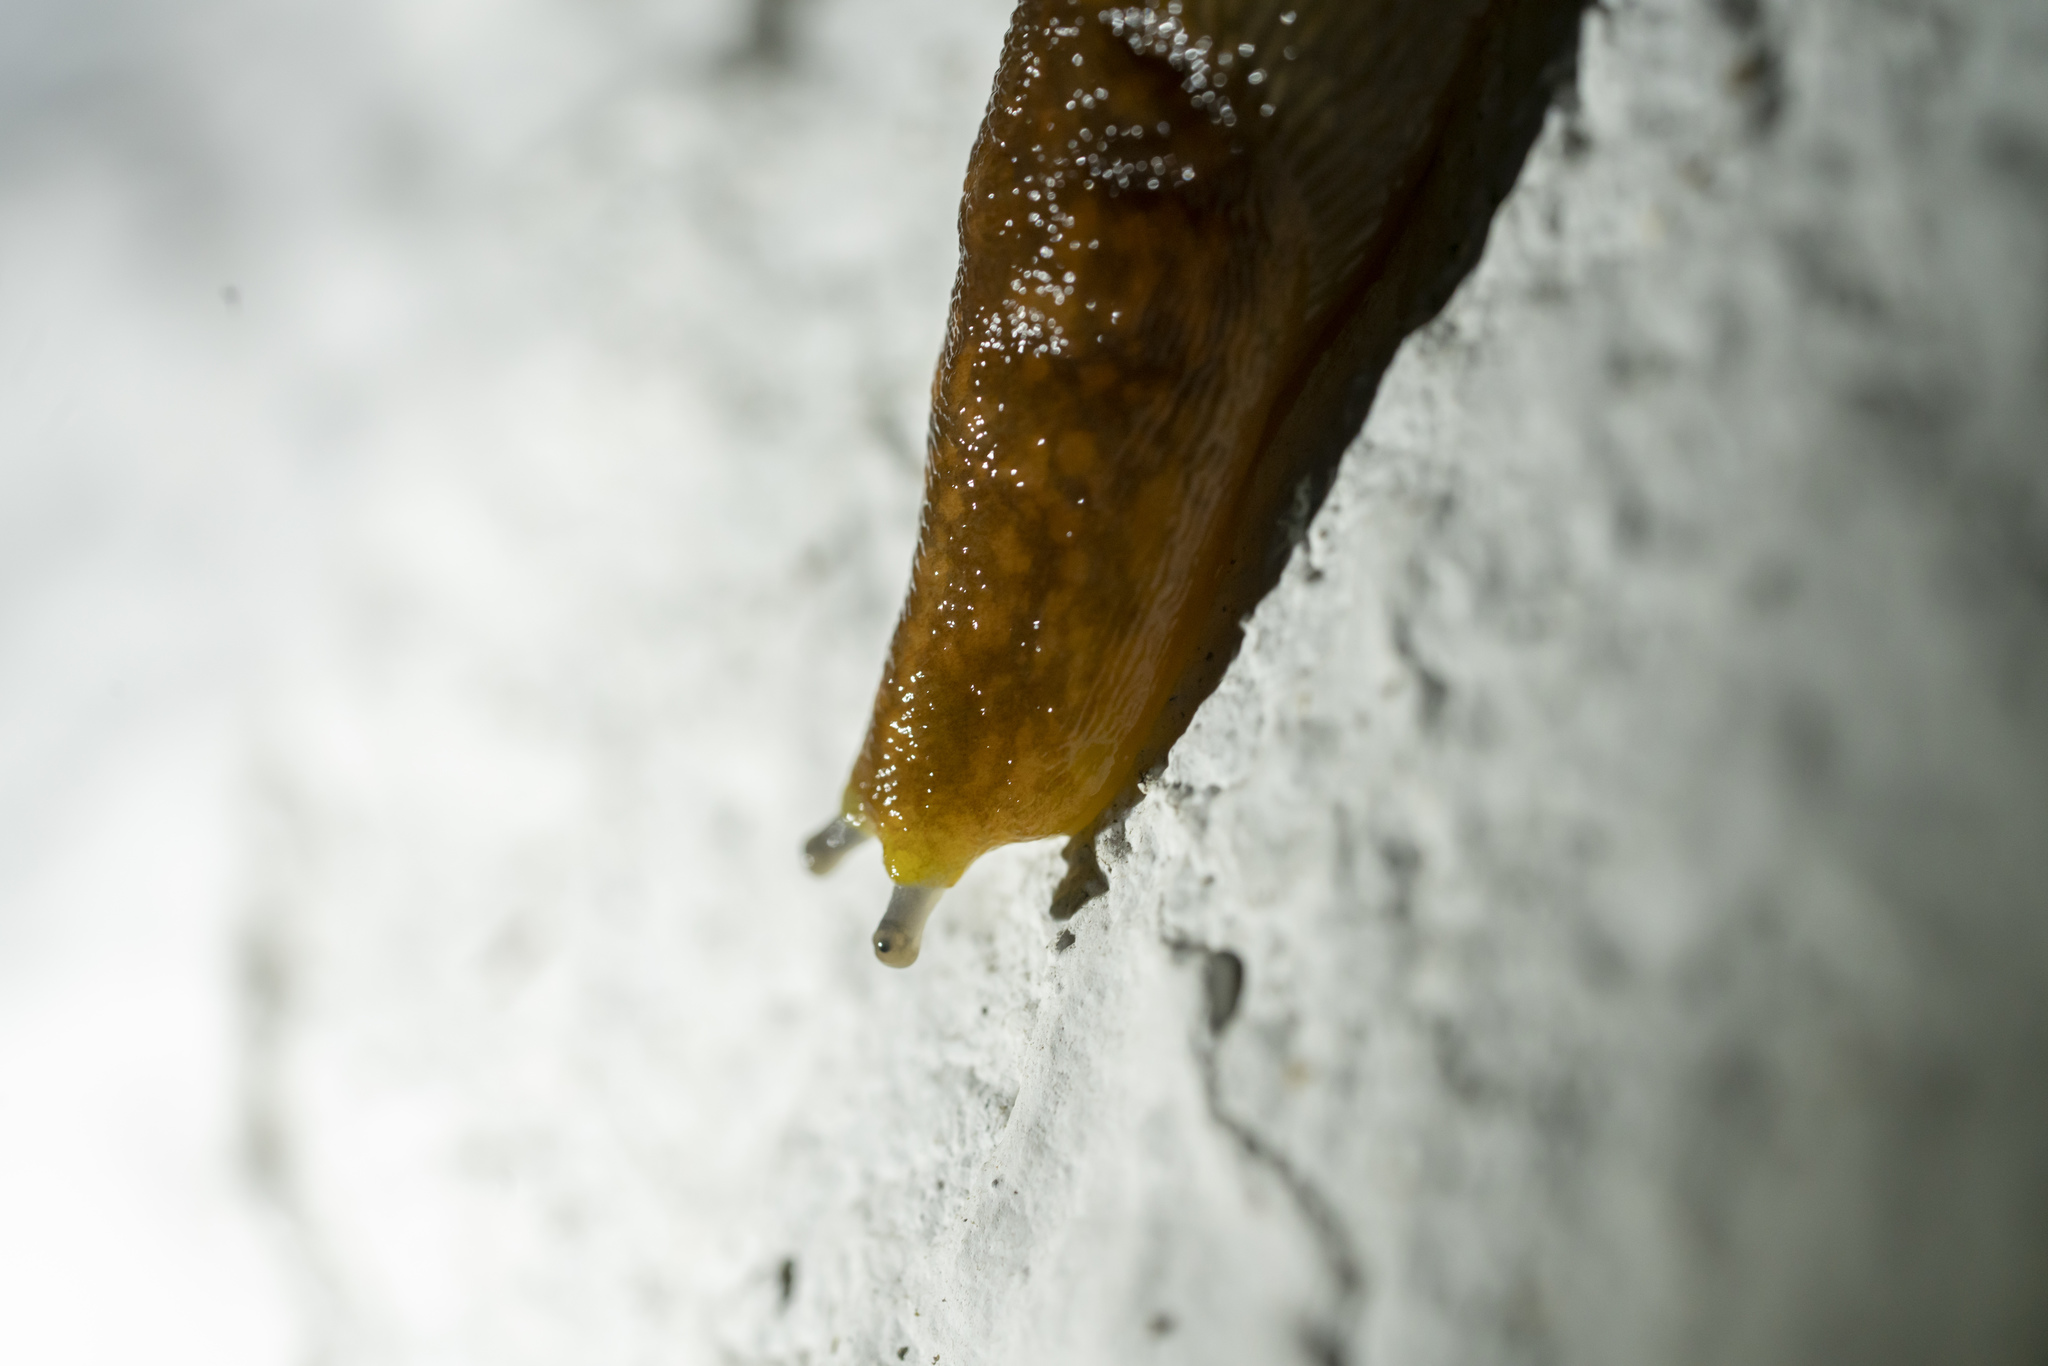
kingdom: Animalia
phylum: Mollusca
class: Gastropoda
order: Stylommatophora
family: Limacidae
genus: Limacus
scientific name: Limacus flavus
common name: Yellow gardenslug
